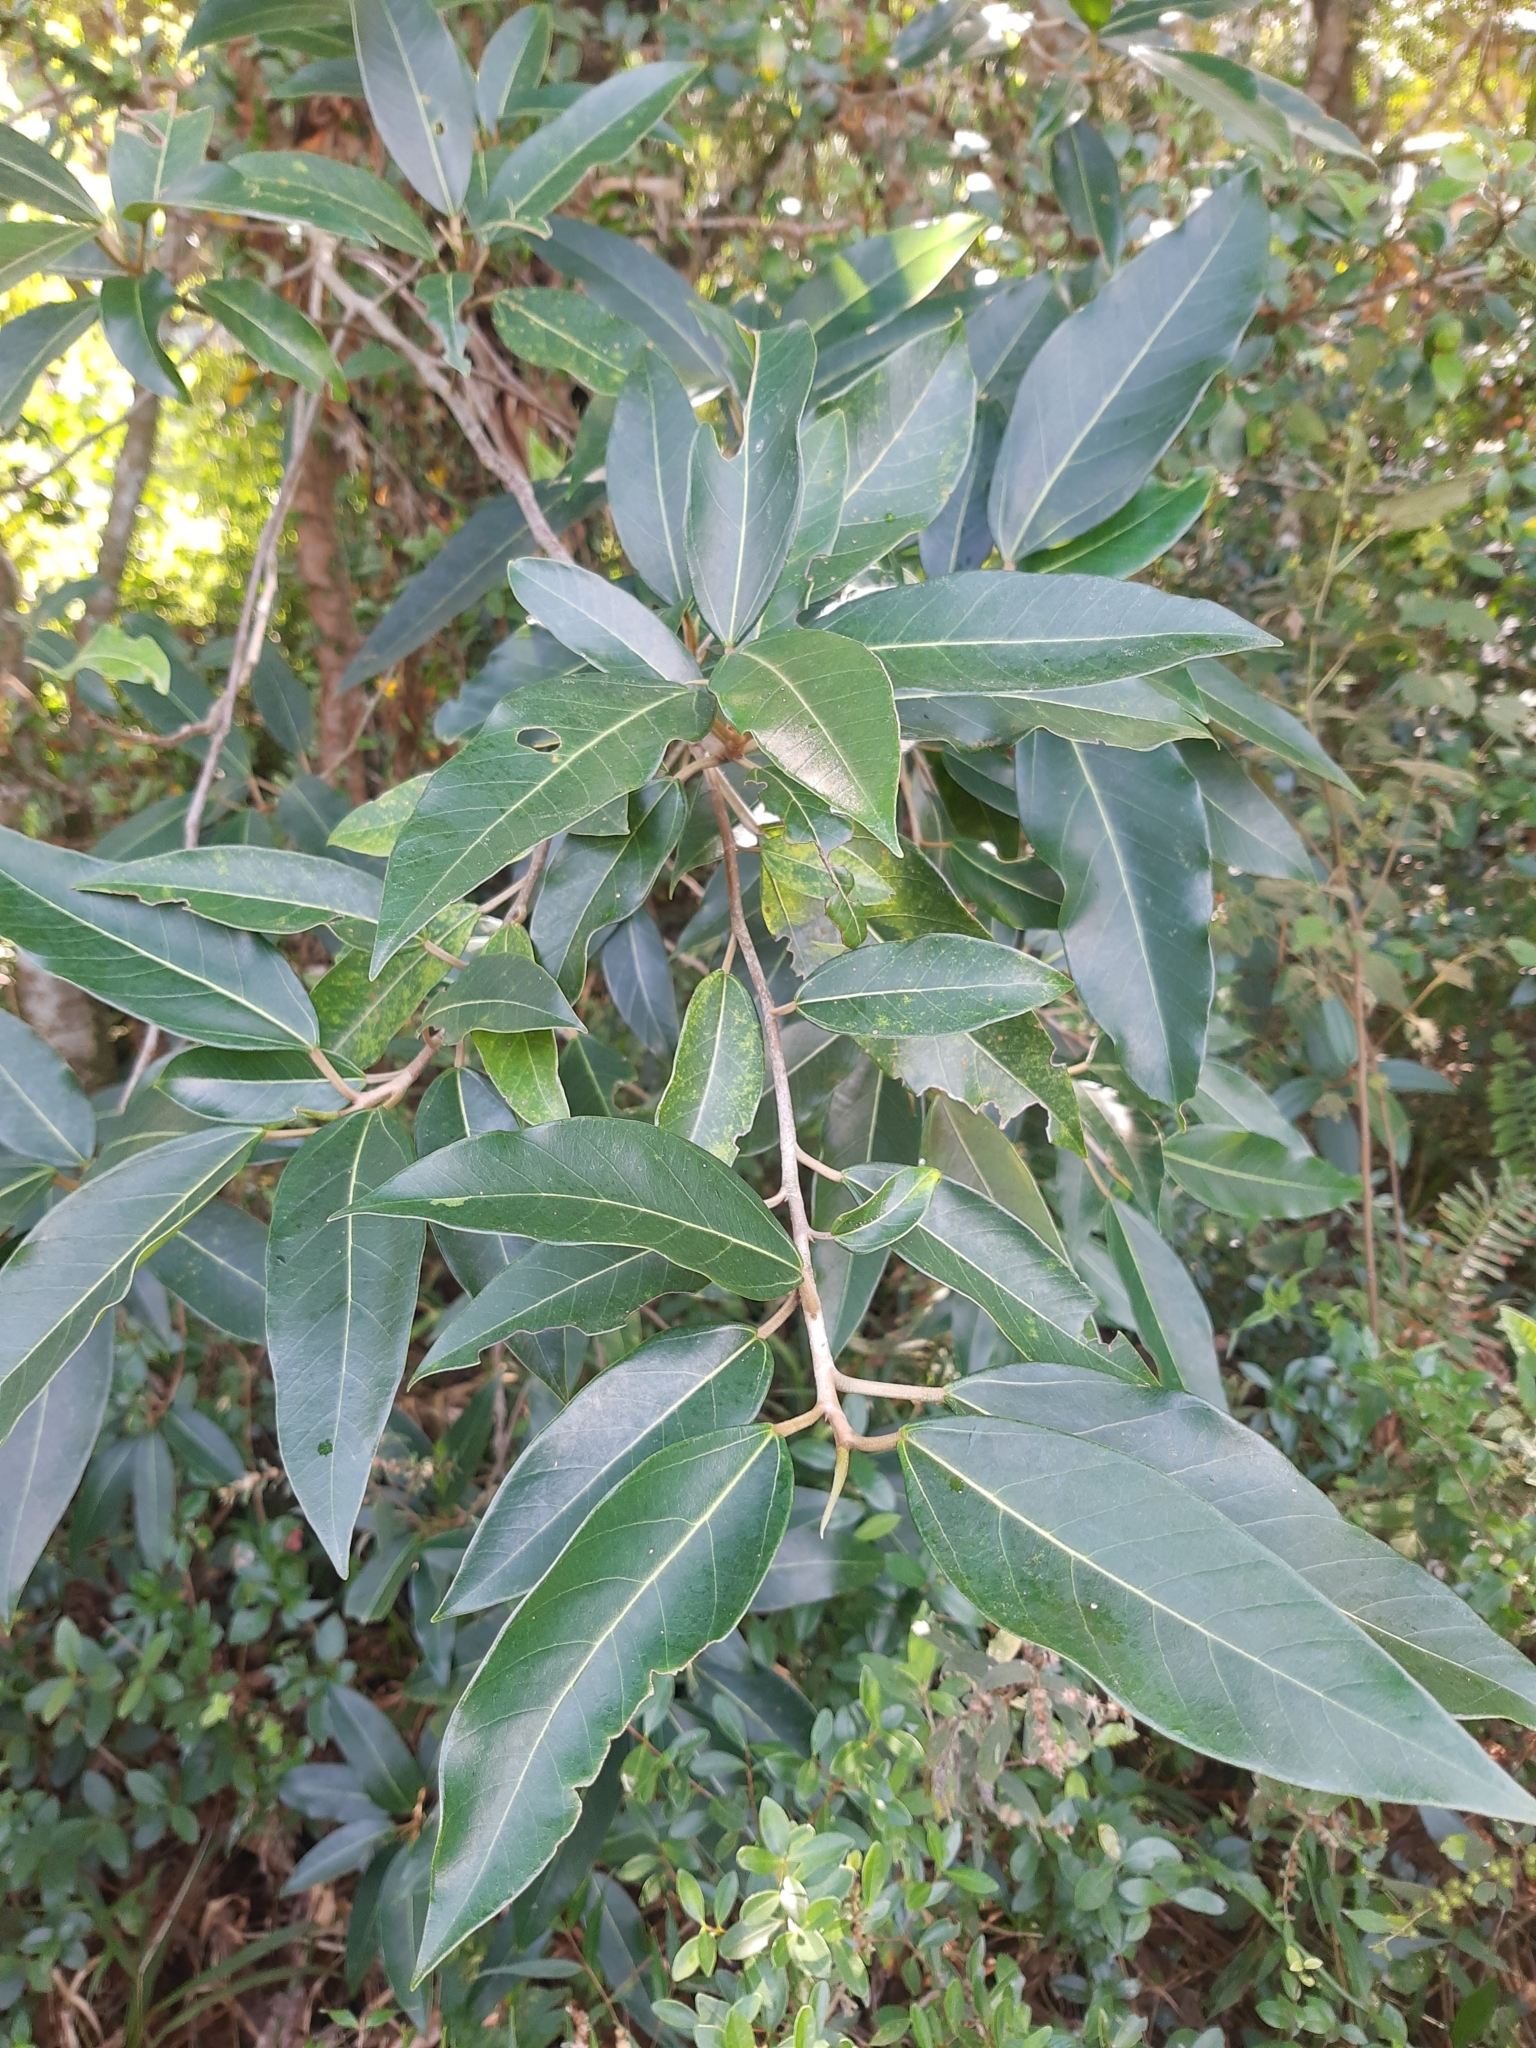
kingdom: Plantae
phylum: Tracheophyta
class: Magnoliopsida
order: Rosales
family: Urticaceae
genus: Coussapoa
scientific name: Coussapoa microcarpa
